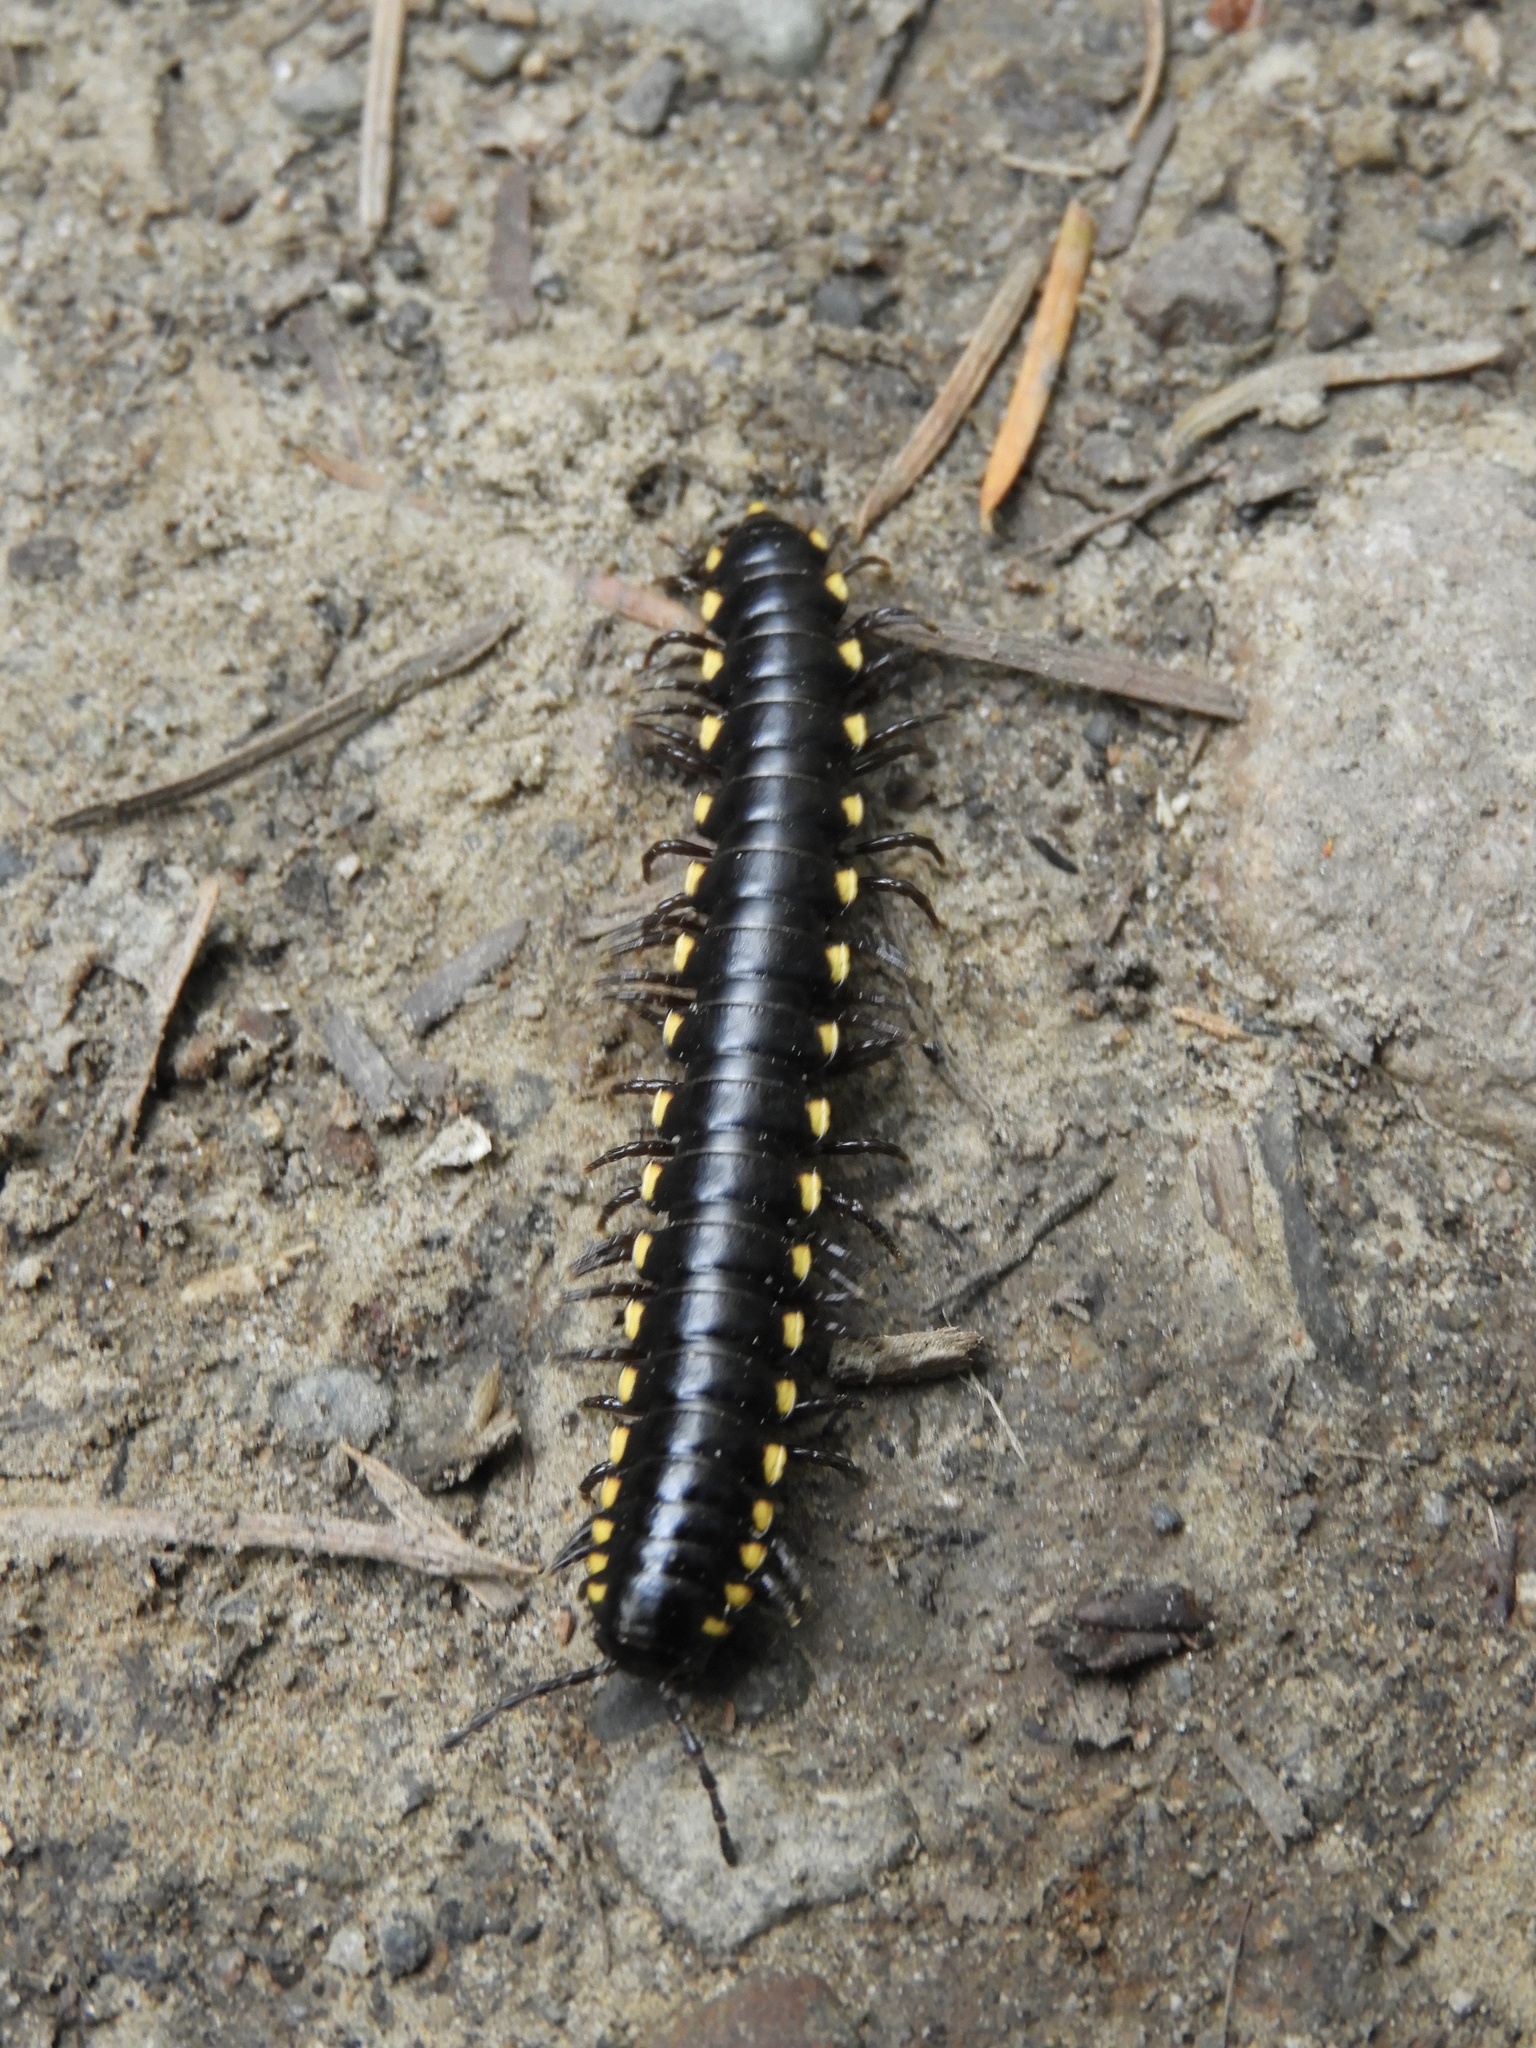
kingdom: Animalia
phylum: Arthropoda
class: Diplopoda
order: Polydesmida
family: Xystodesmidae
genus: Harpaphe
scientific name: Harpaphe haydeniana
